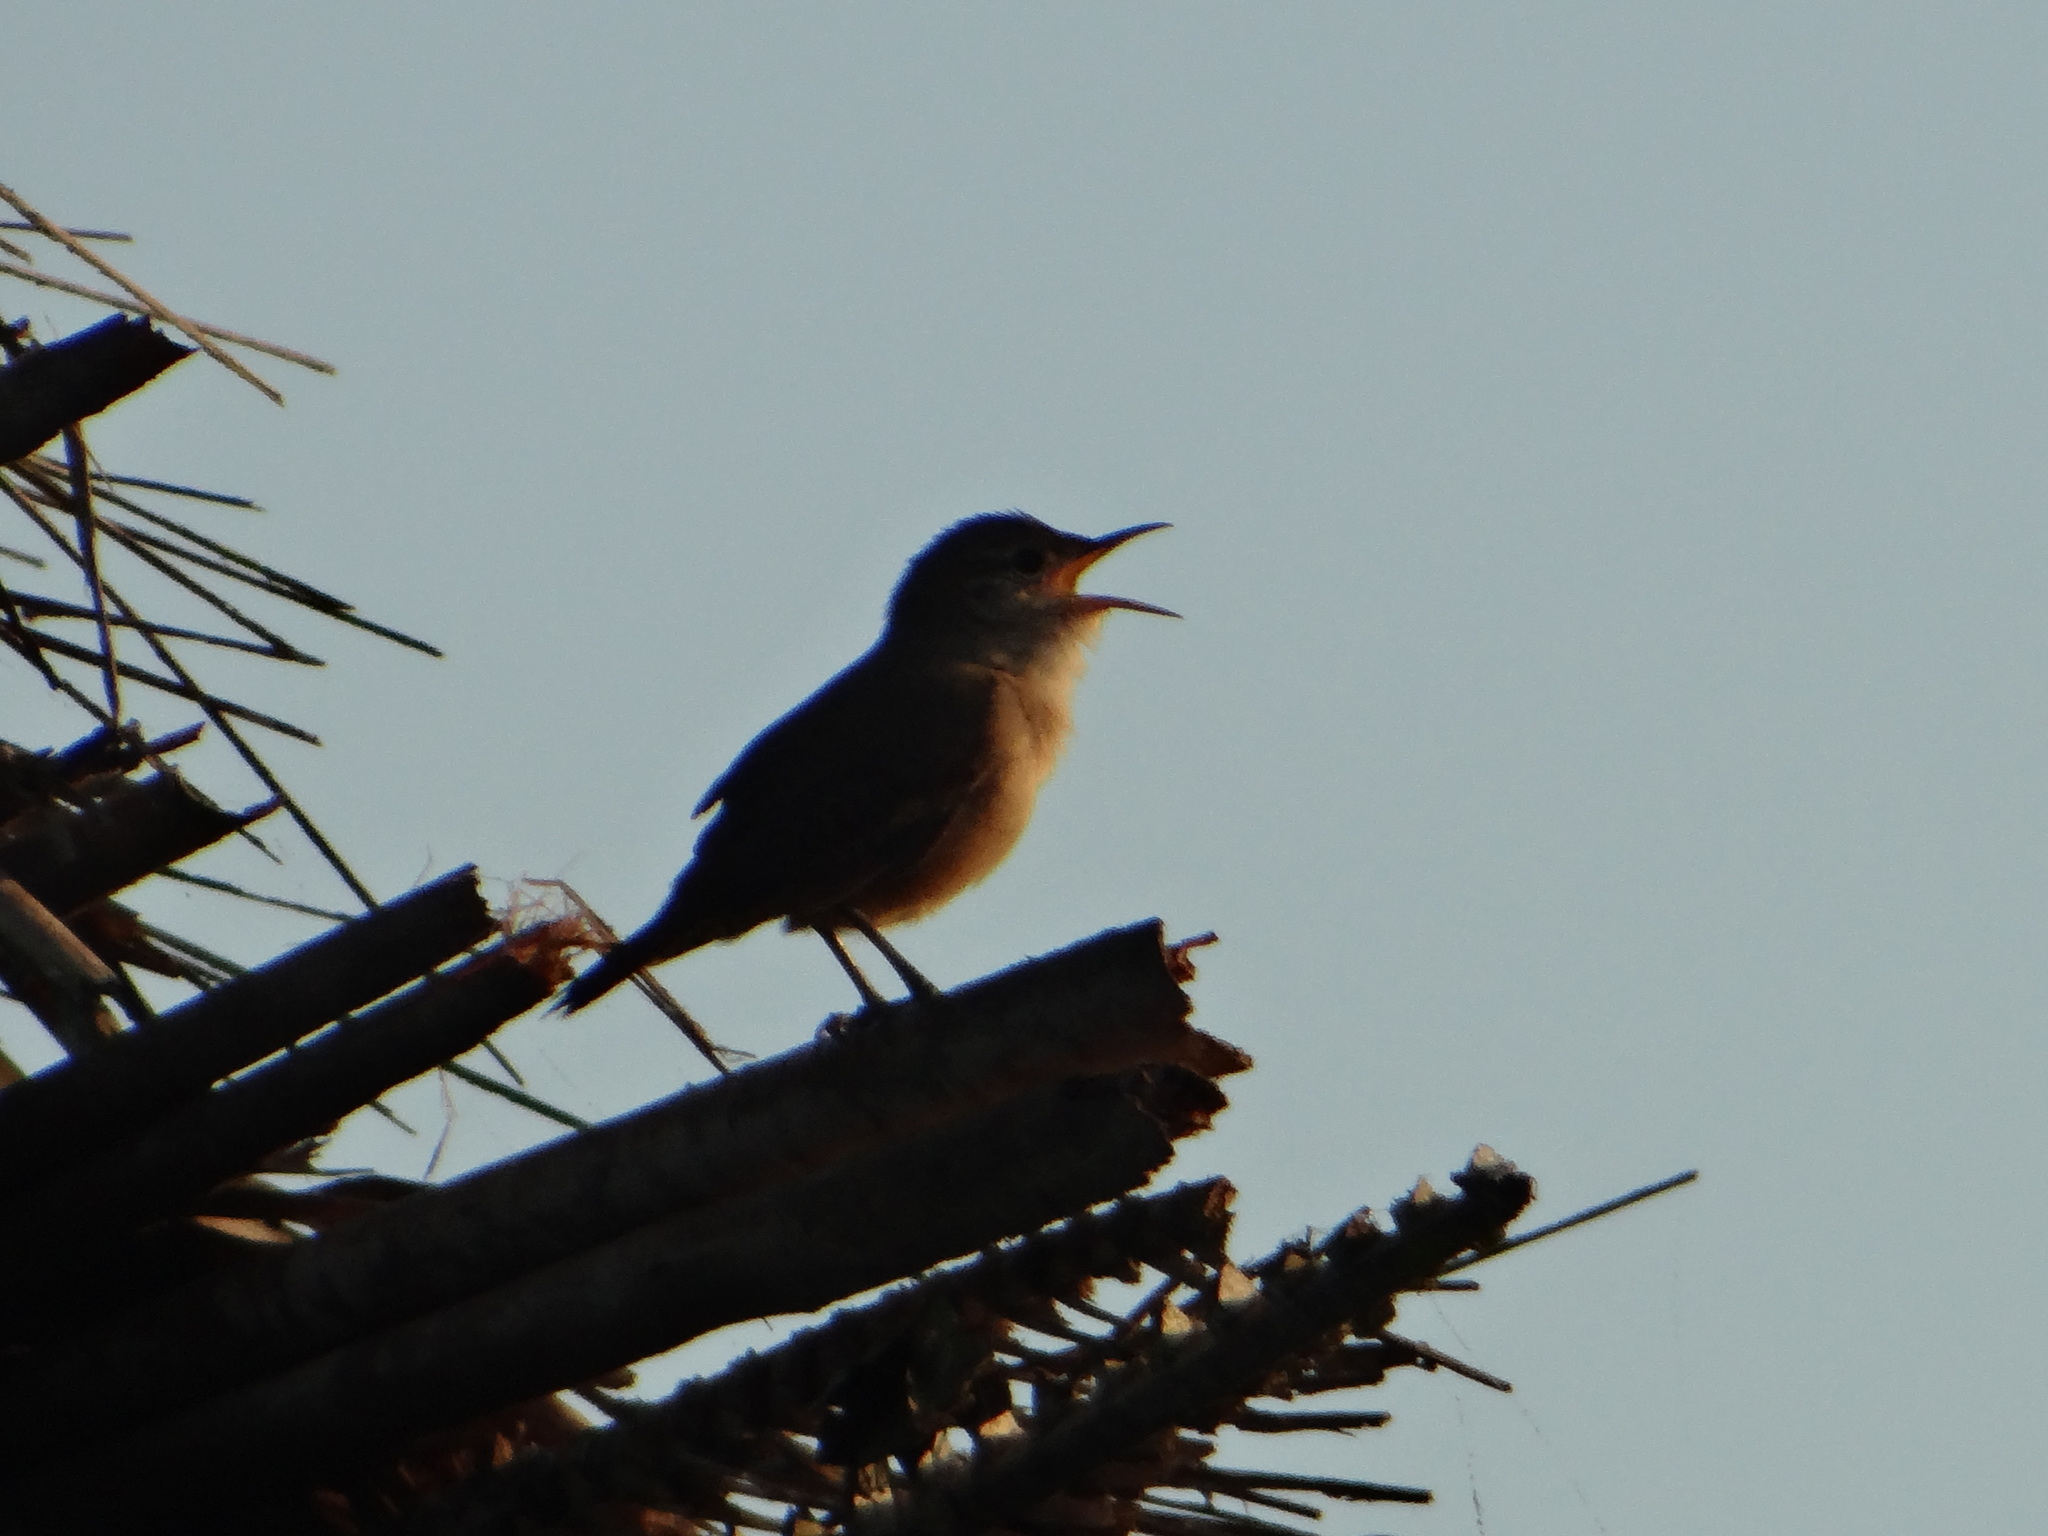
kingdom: Animalia
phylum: Chordata
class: Aves
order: Passeriformes
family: Troglodytidae
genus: Troglodytes
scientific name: Troglodytes aedon
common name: House wren
